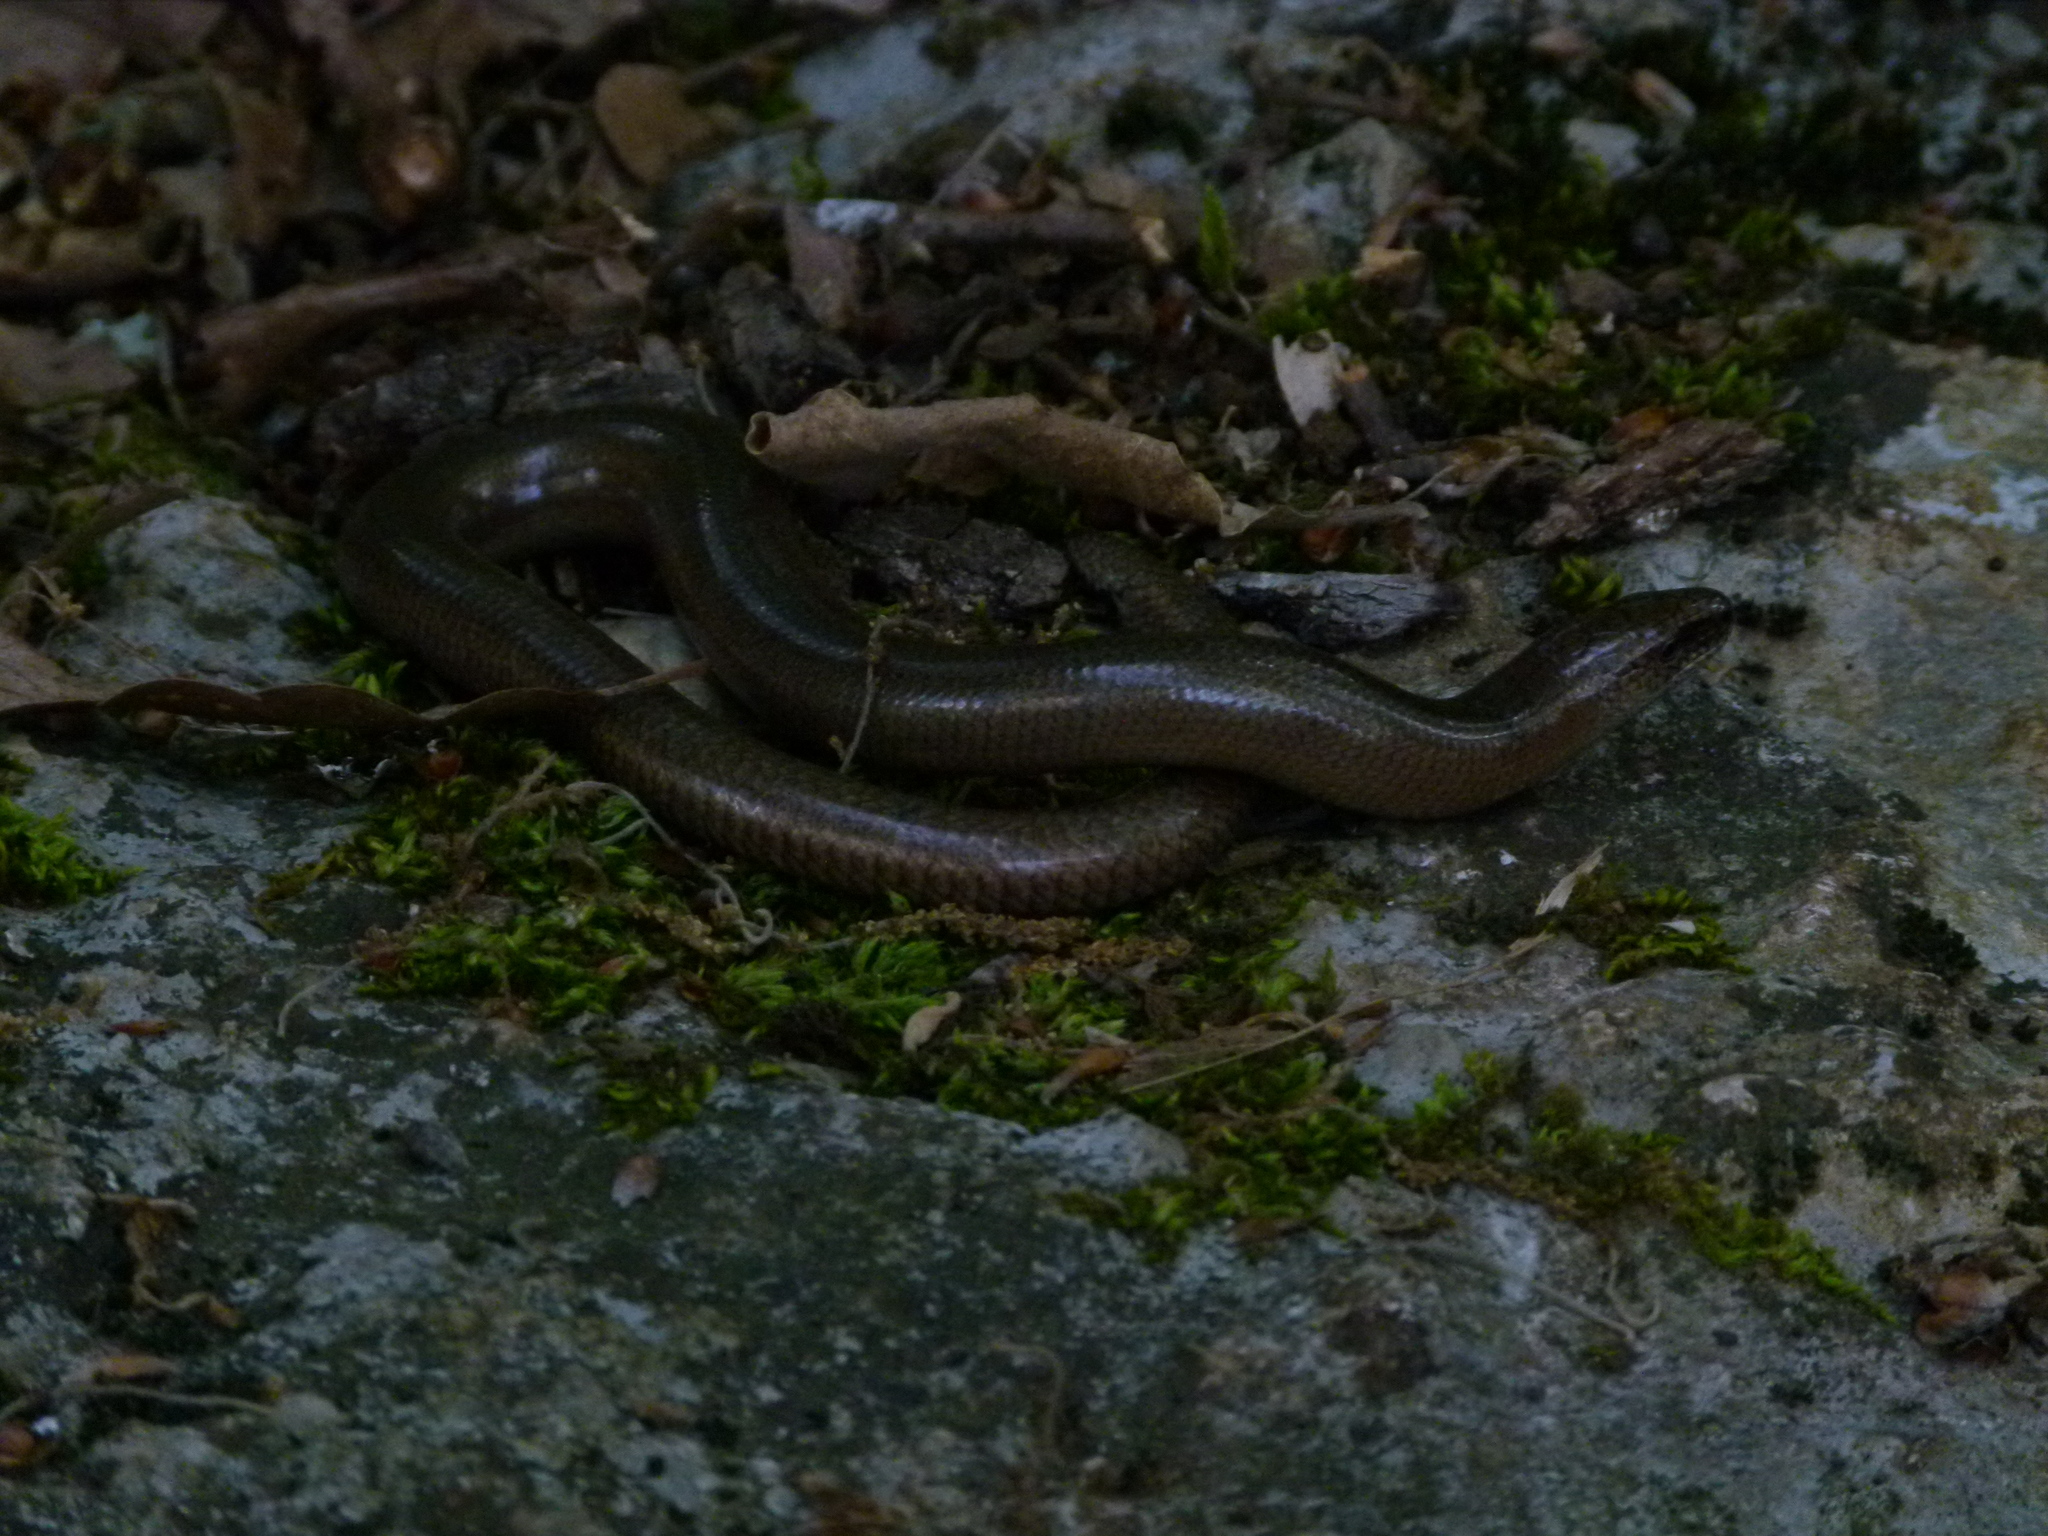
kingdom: Animalia
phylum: Chordata
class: Squamata
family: Anguidae
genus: Anguis
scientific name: Anguis fragilis
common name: Slow worm
